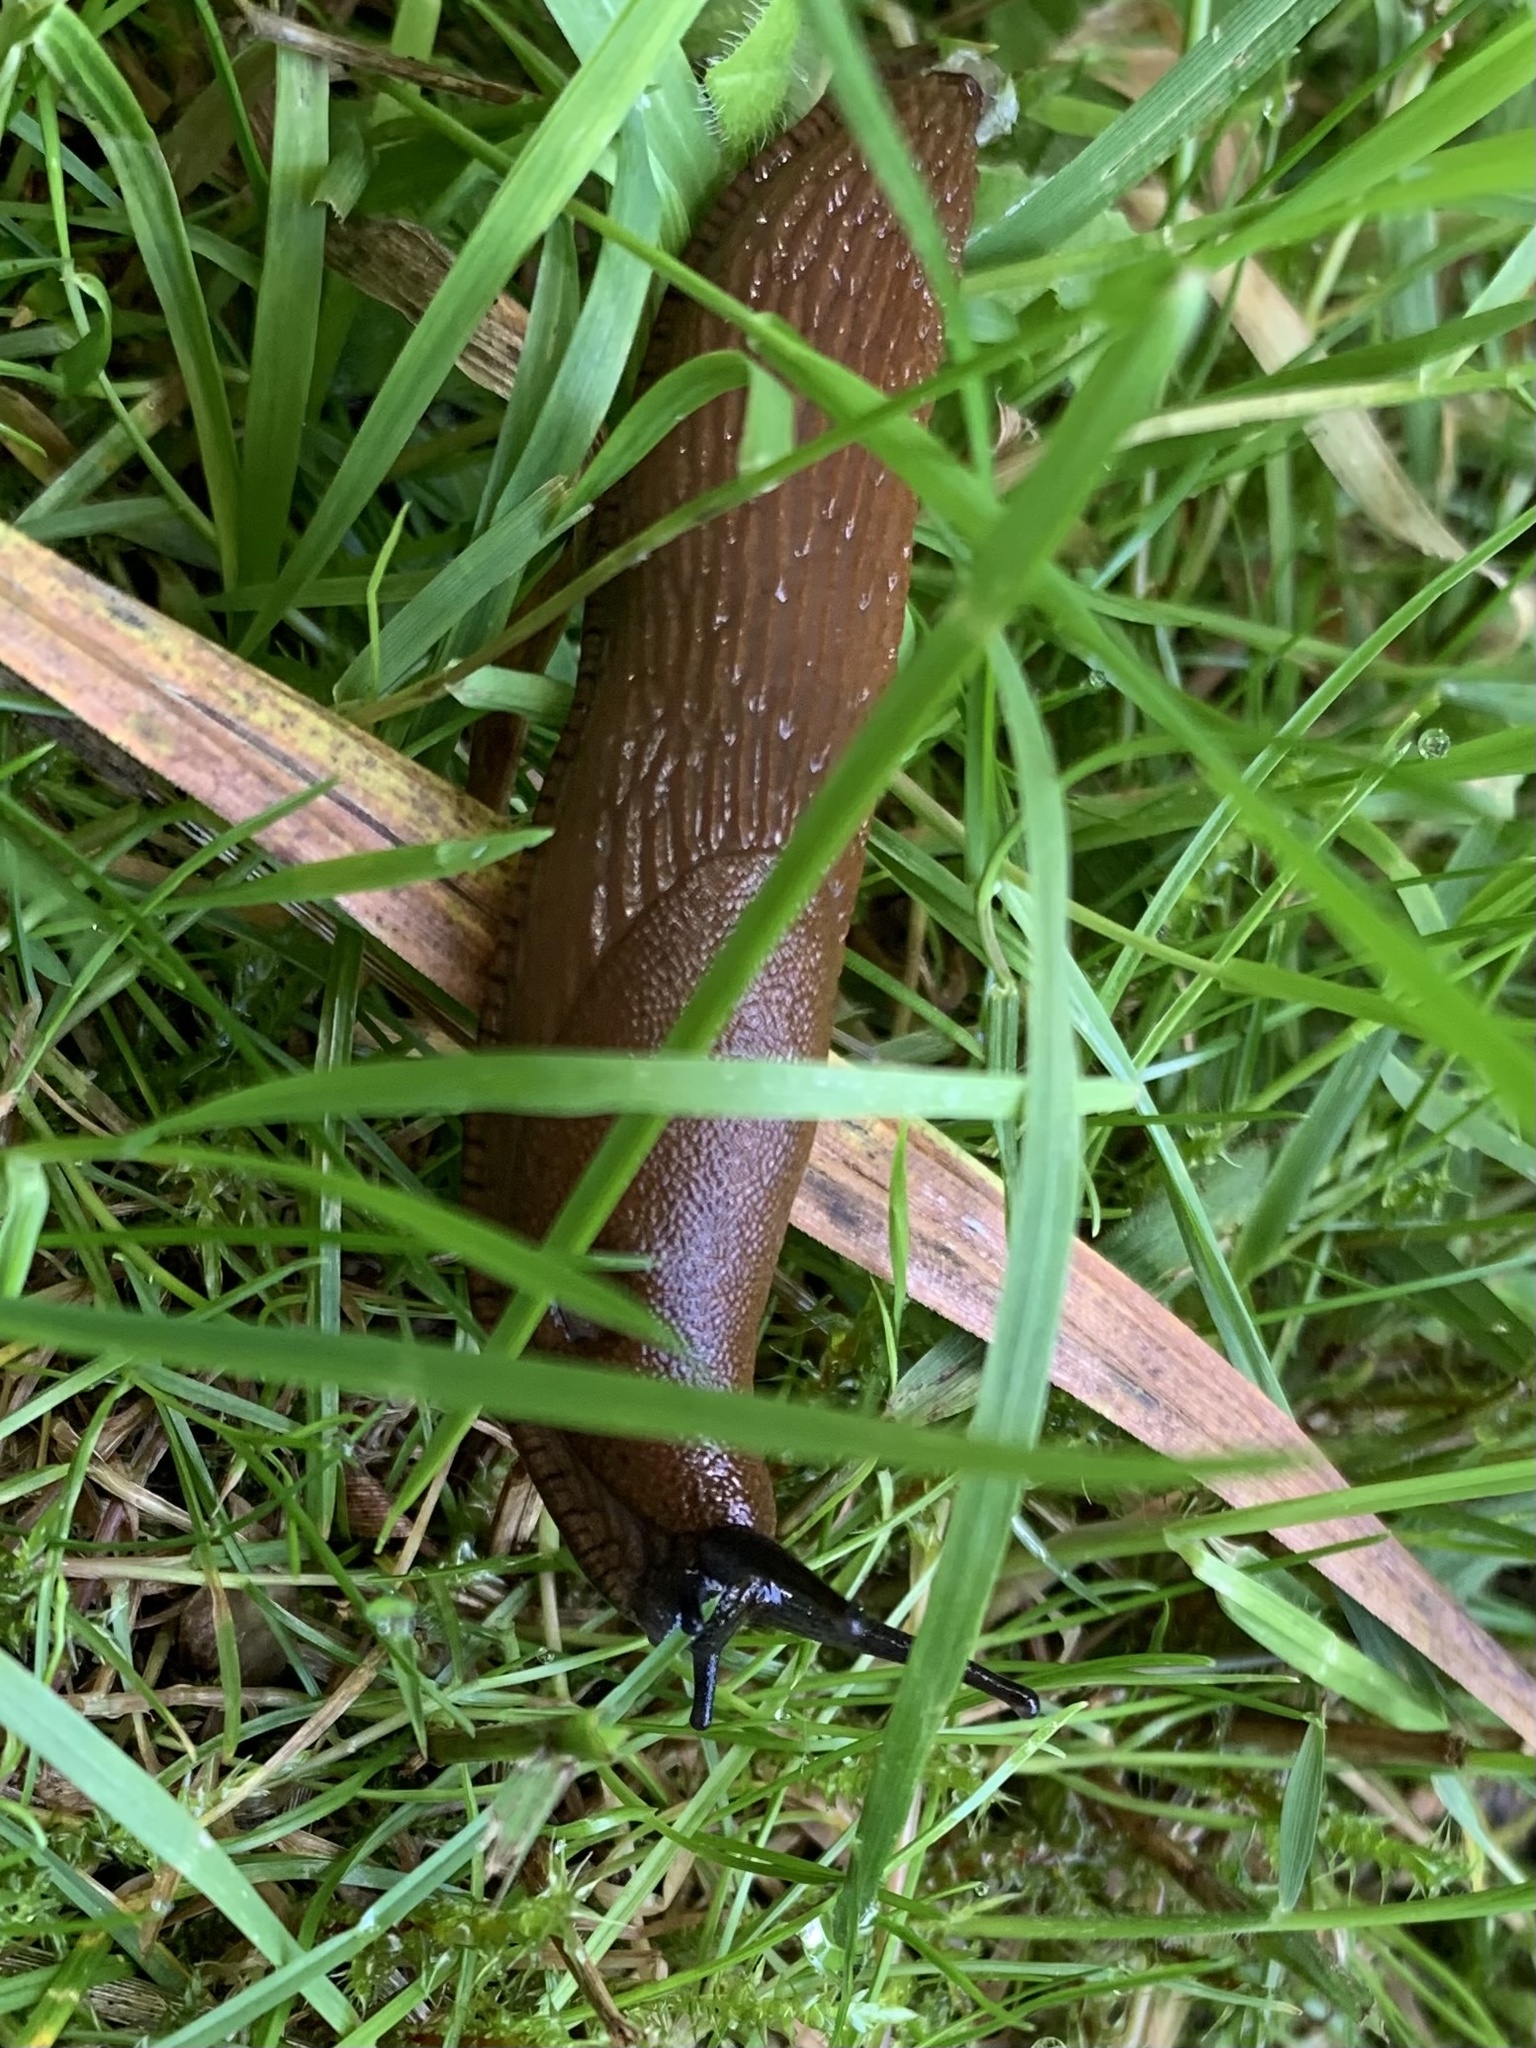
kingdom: Animalia
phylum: Mollusca
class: Gastropoda
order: Stylommatophora
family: Arionidae
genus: Arion
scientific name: Arion rufus
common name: Chocolate arion
